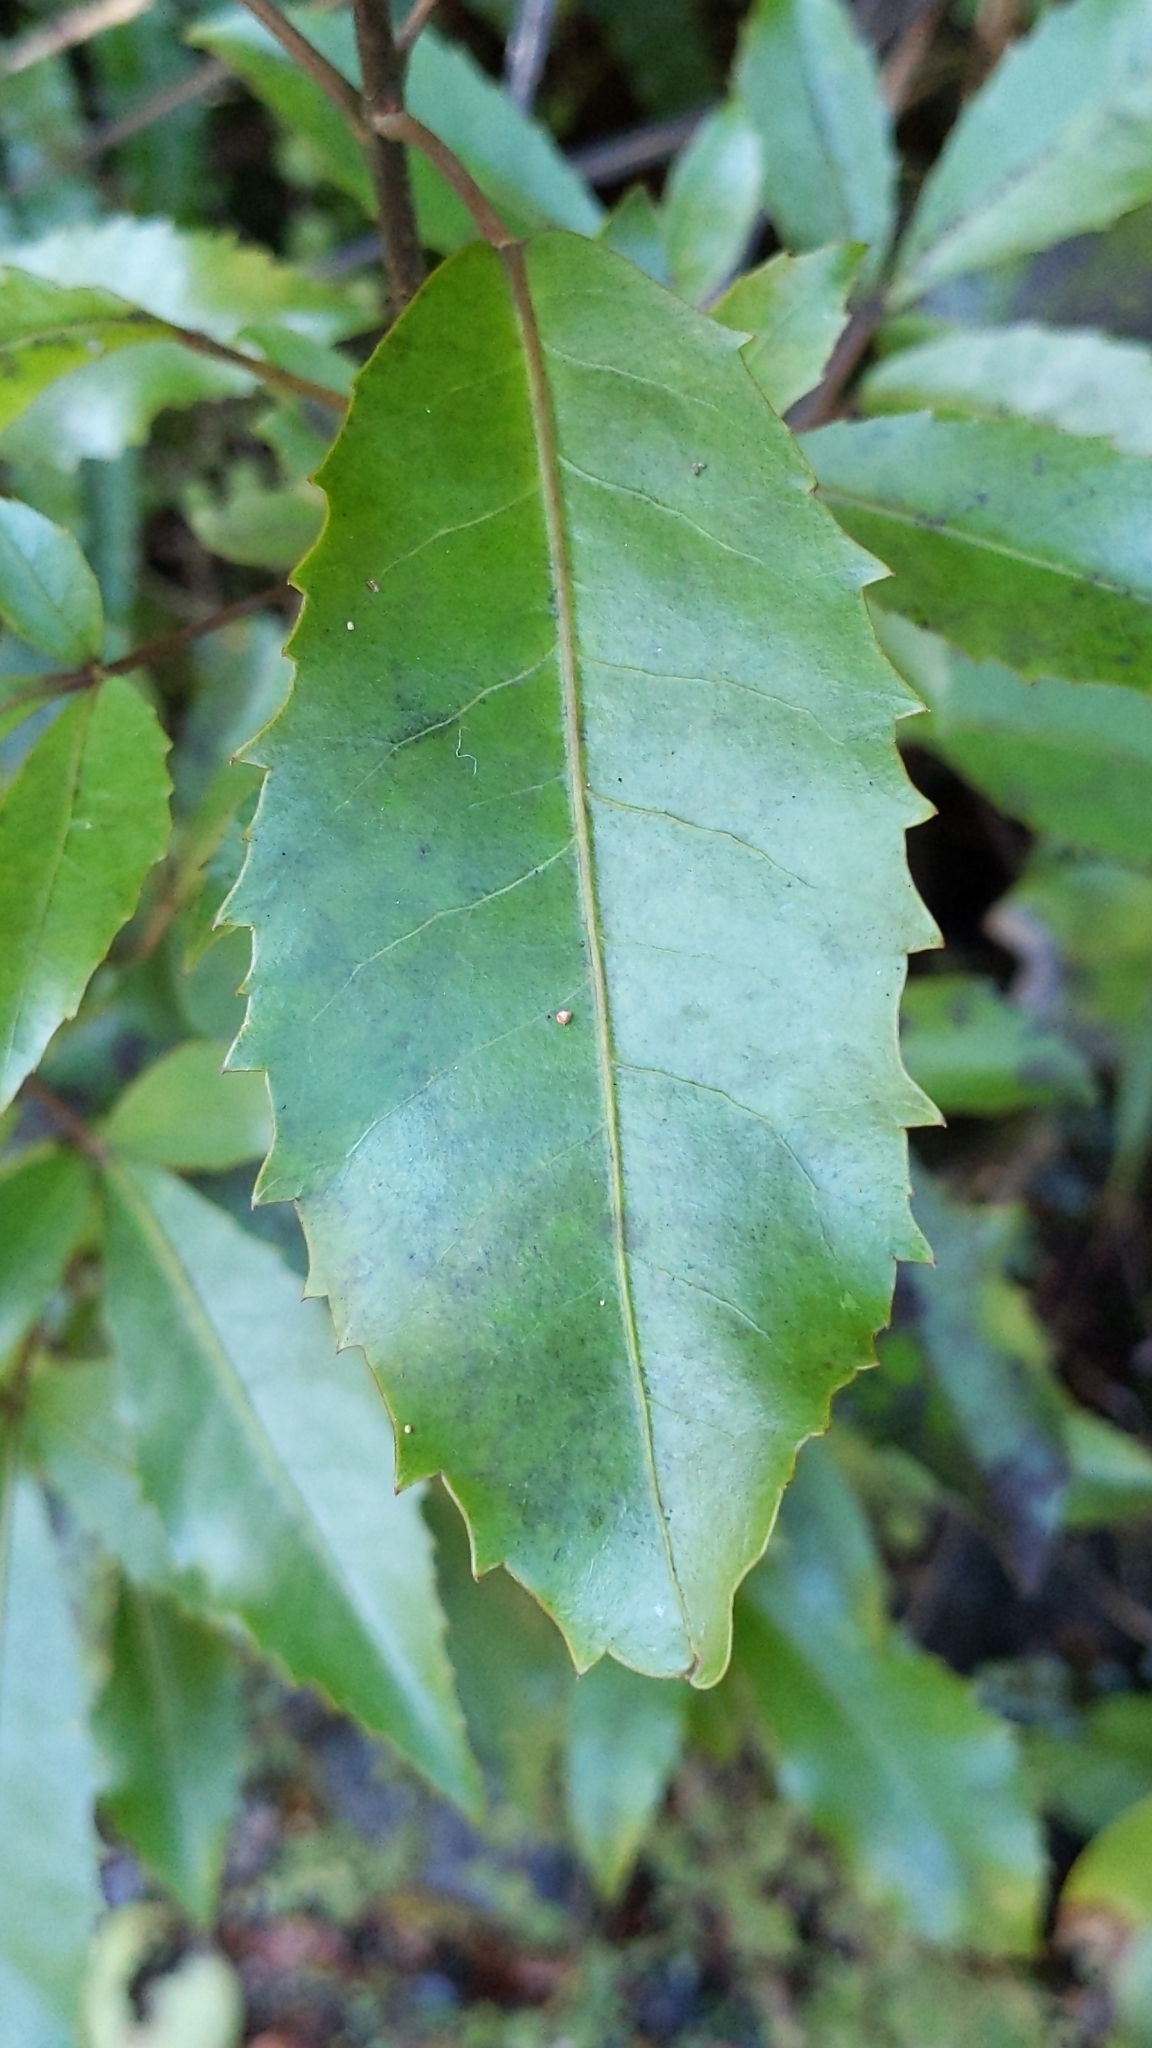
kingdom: Plantae
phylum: Tracheophyta
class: Magnoliopsida
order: Apiales
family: Araliaceae
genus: Raukaua
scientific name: Raukaua simplex
